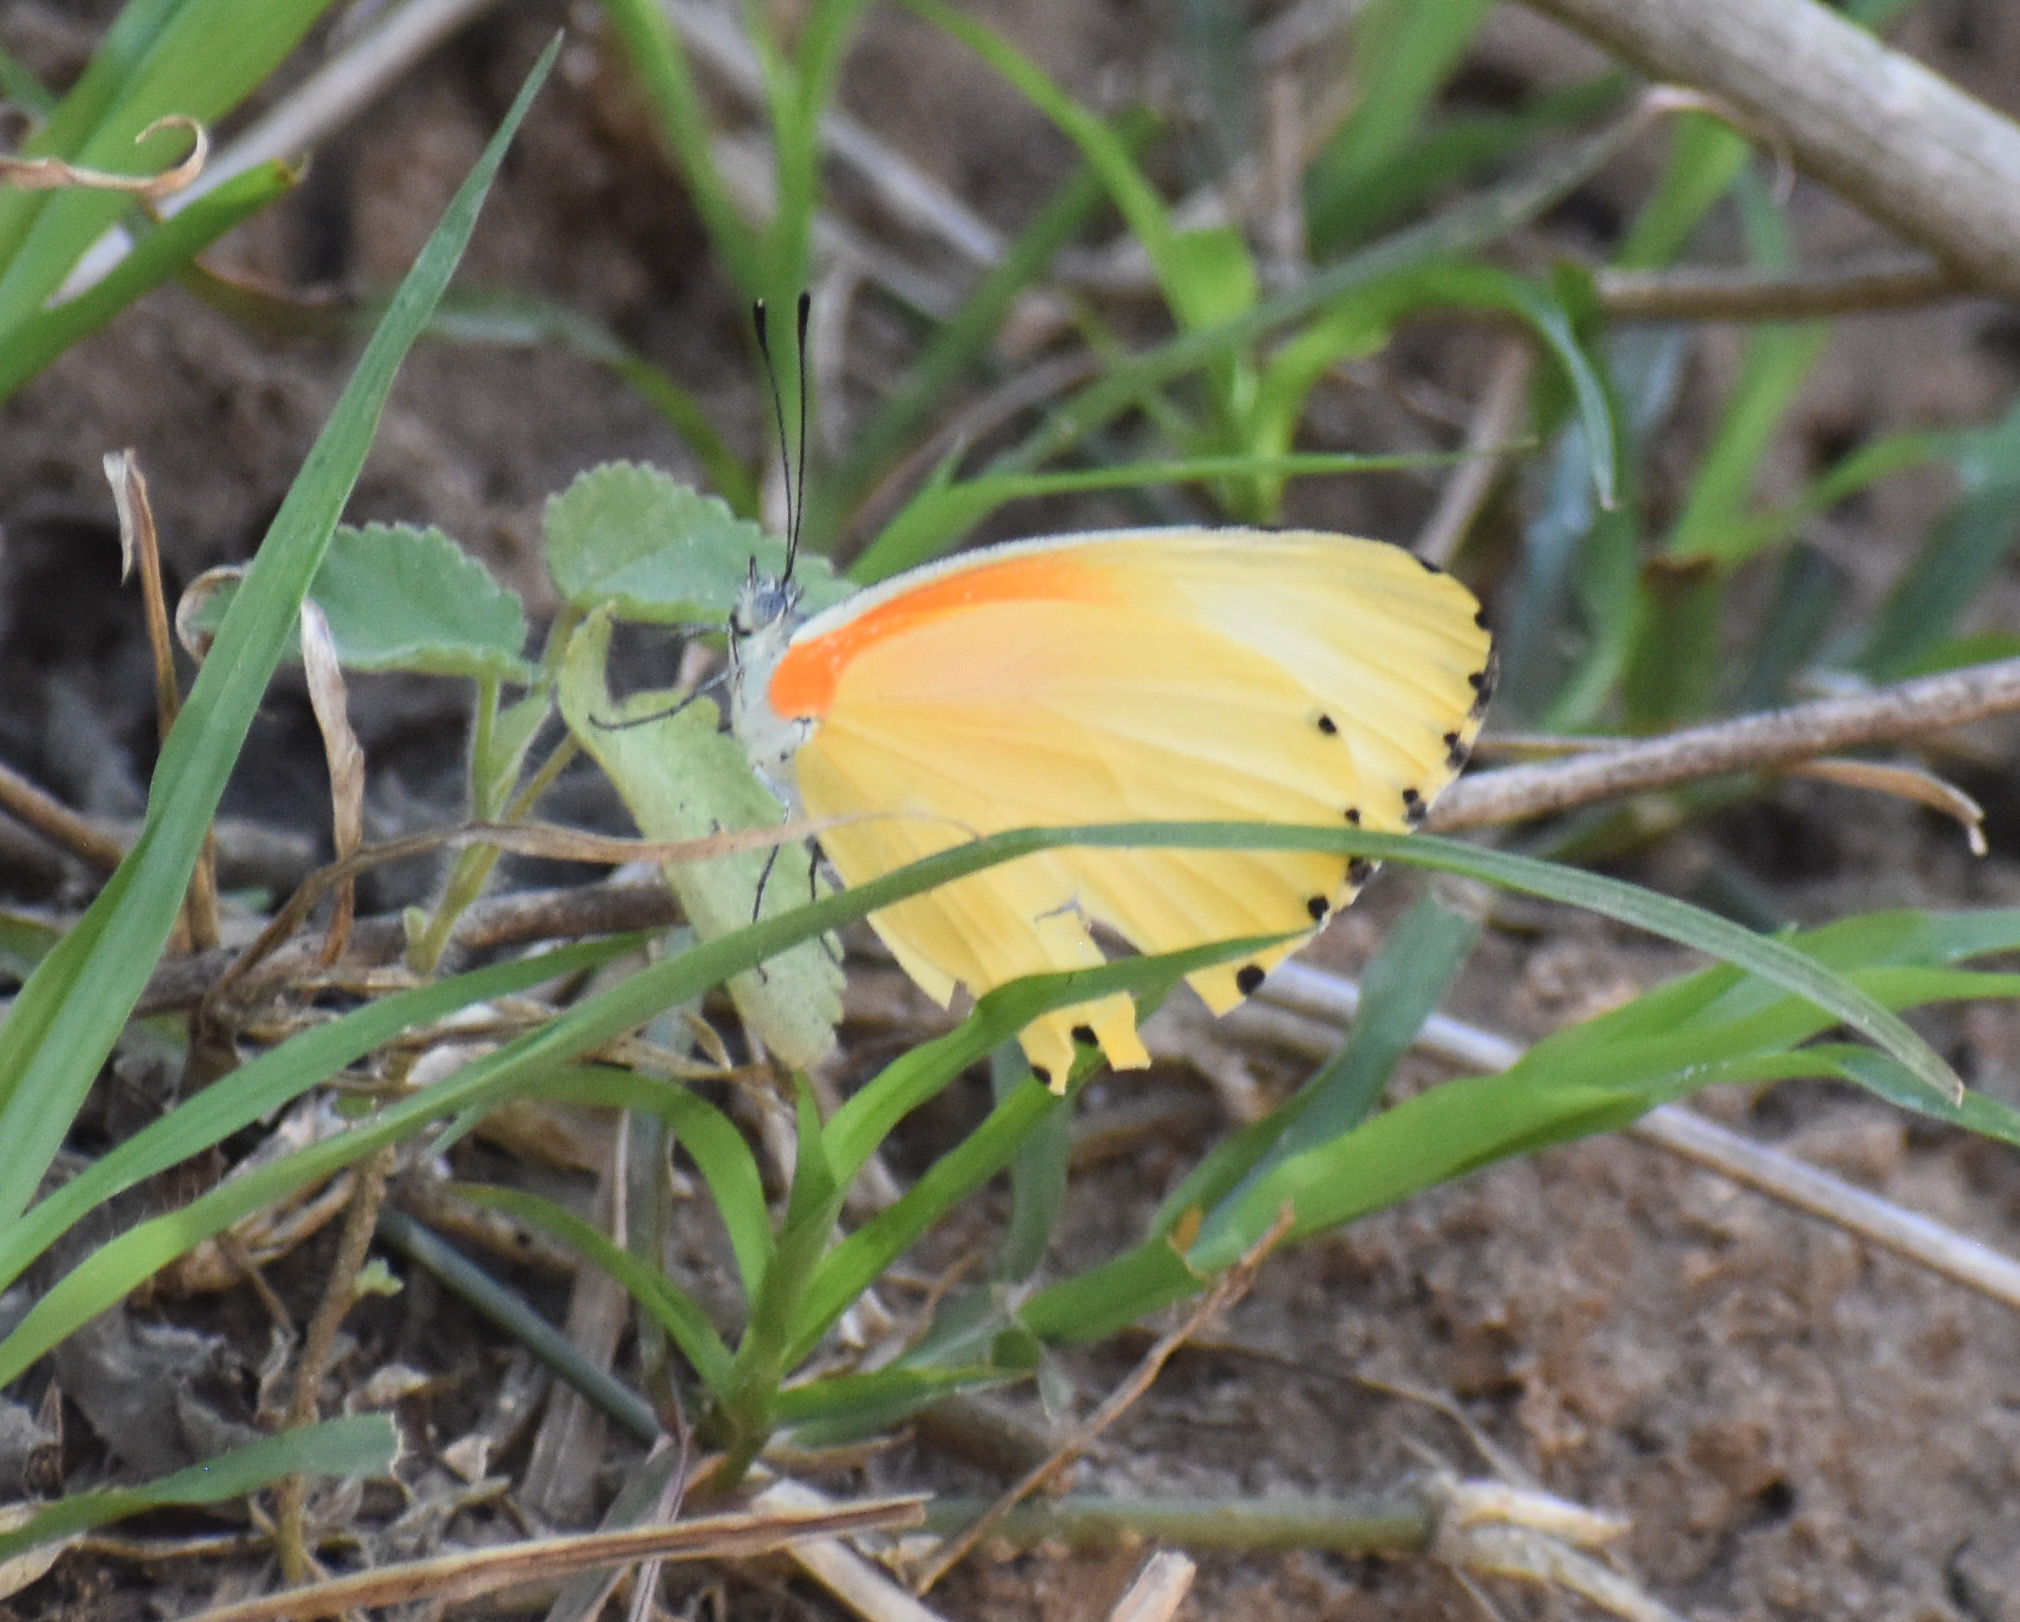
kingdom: Animalia
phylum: Arthropoda
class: Insecta
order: Lepidoptera
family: Pieridae
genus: Mylothris
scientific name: Mylothris agathina
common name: Eastern dotted border
